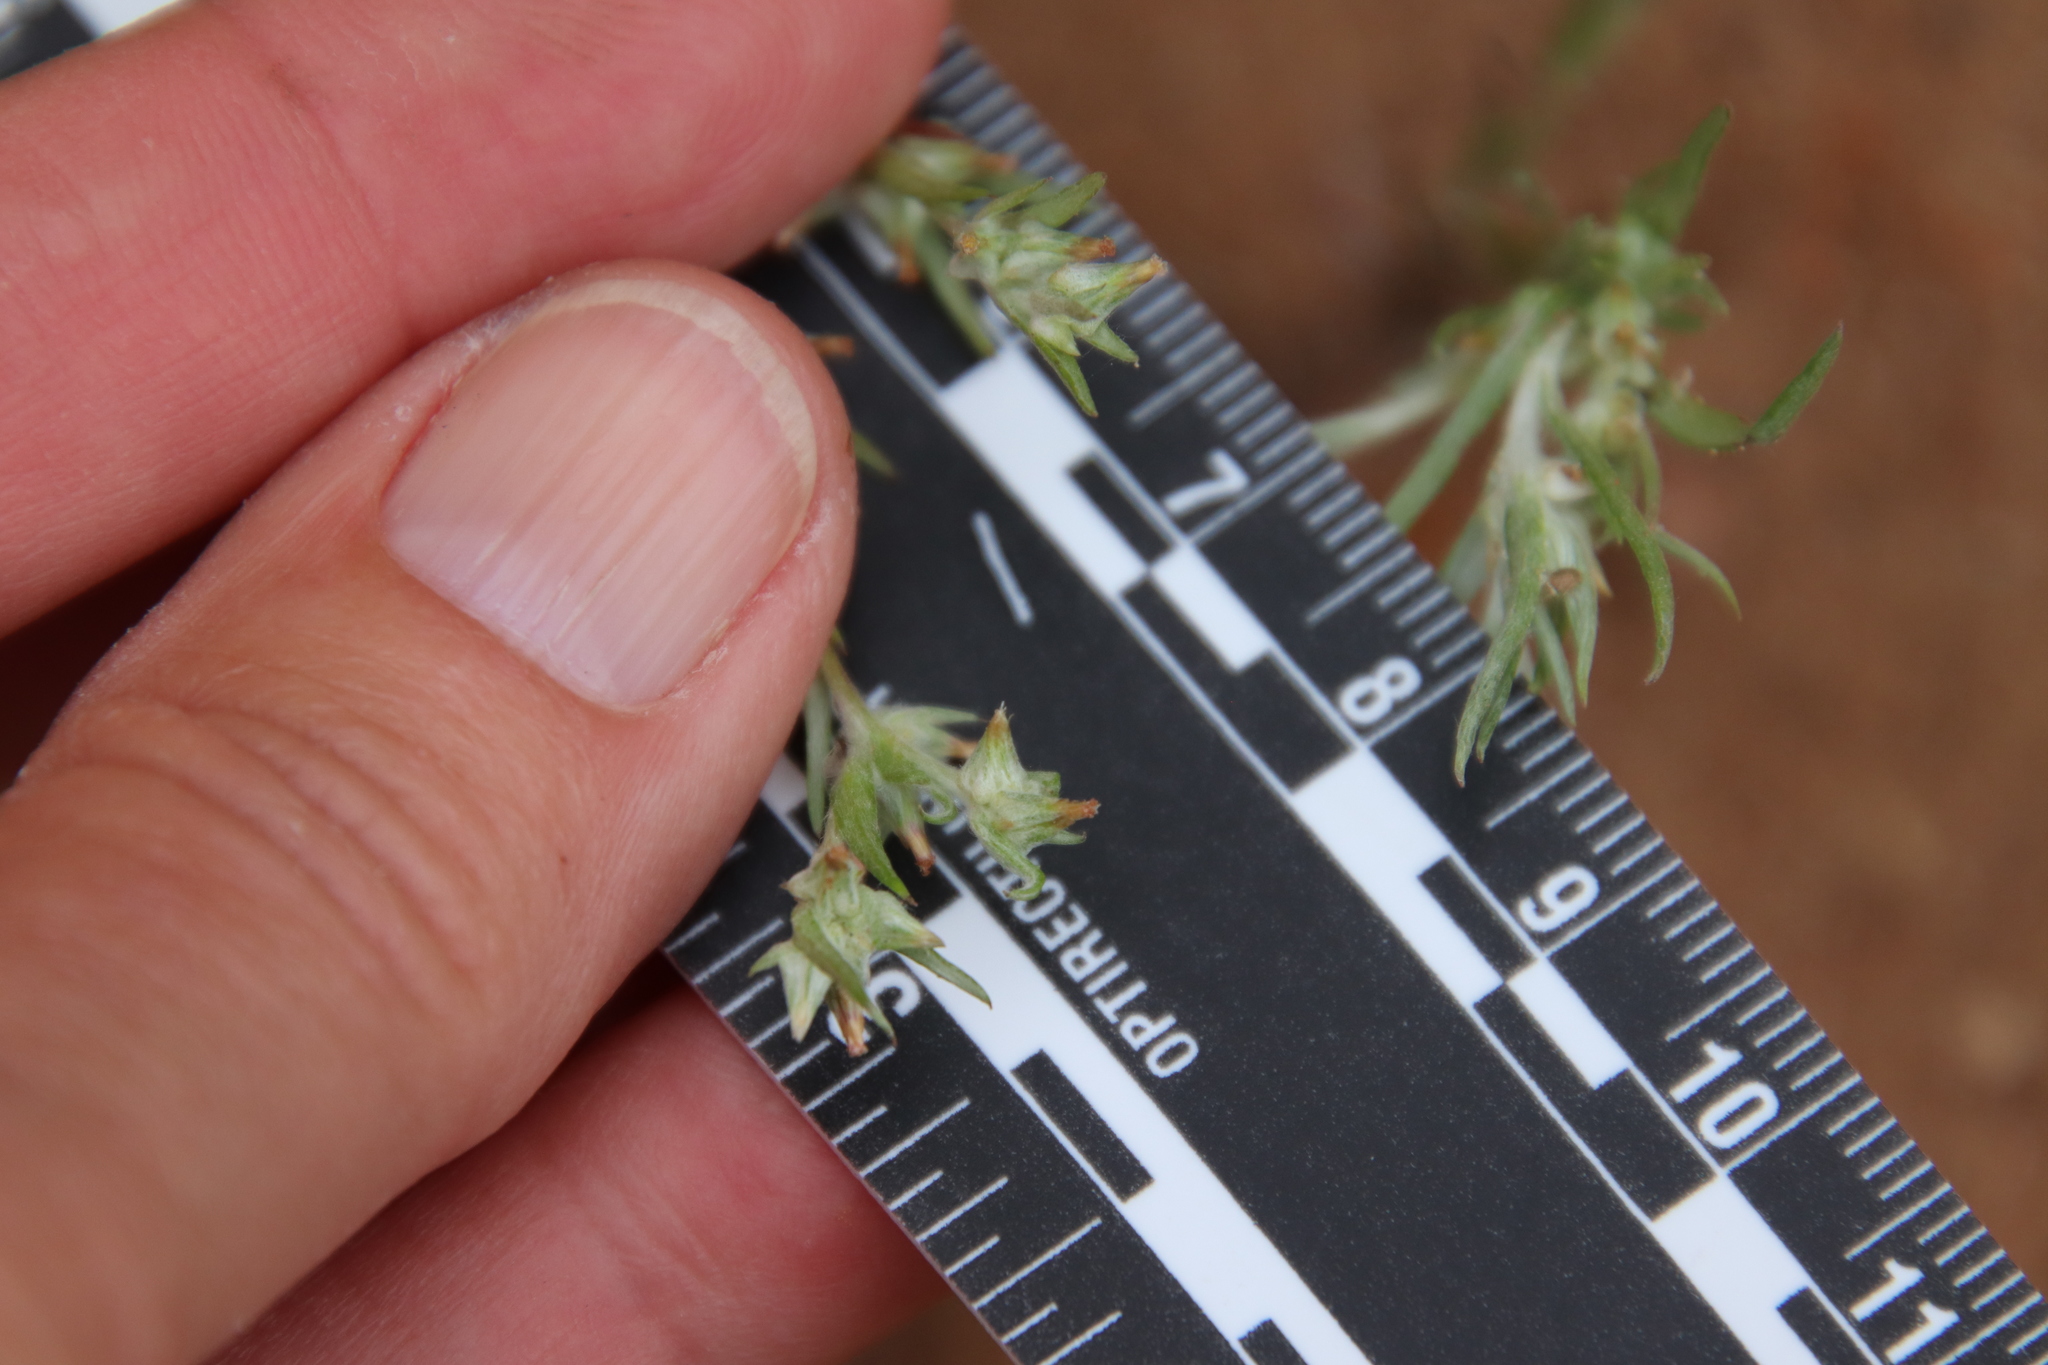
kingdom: Plantae
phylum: Tracheophyta
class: Magnoliopsida
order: Asterales
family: Asteraceae
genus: Logfia
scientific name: Logfia gallica
